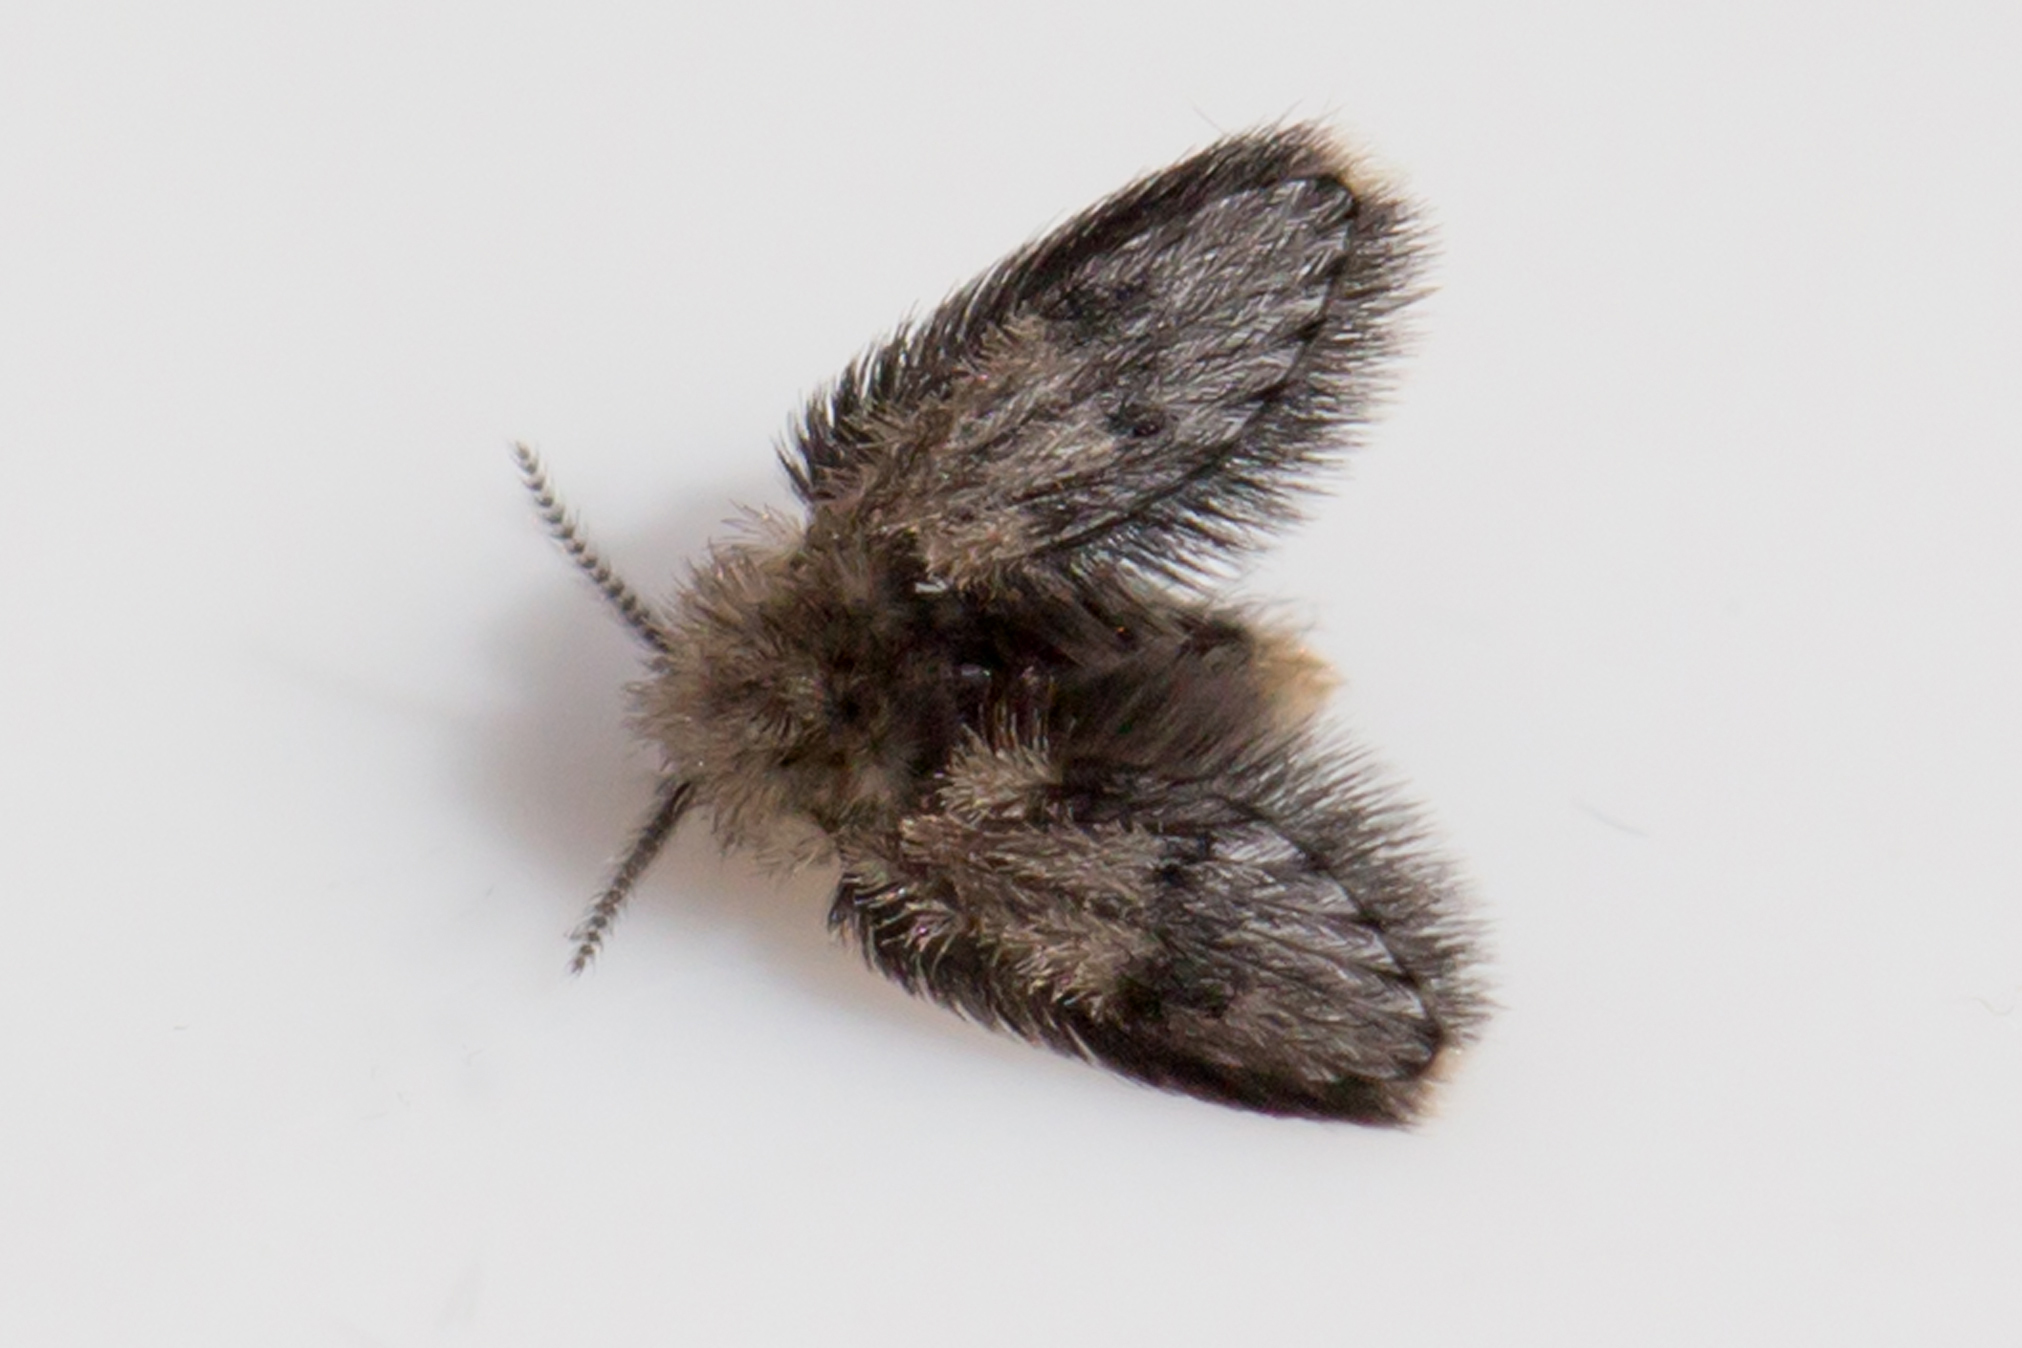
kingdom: Animalia
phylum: Arthropoda
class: Insecta
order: Diptera
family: Psychodidae
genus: Lepiseodina
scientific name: Lepiseodina
